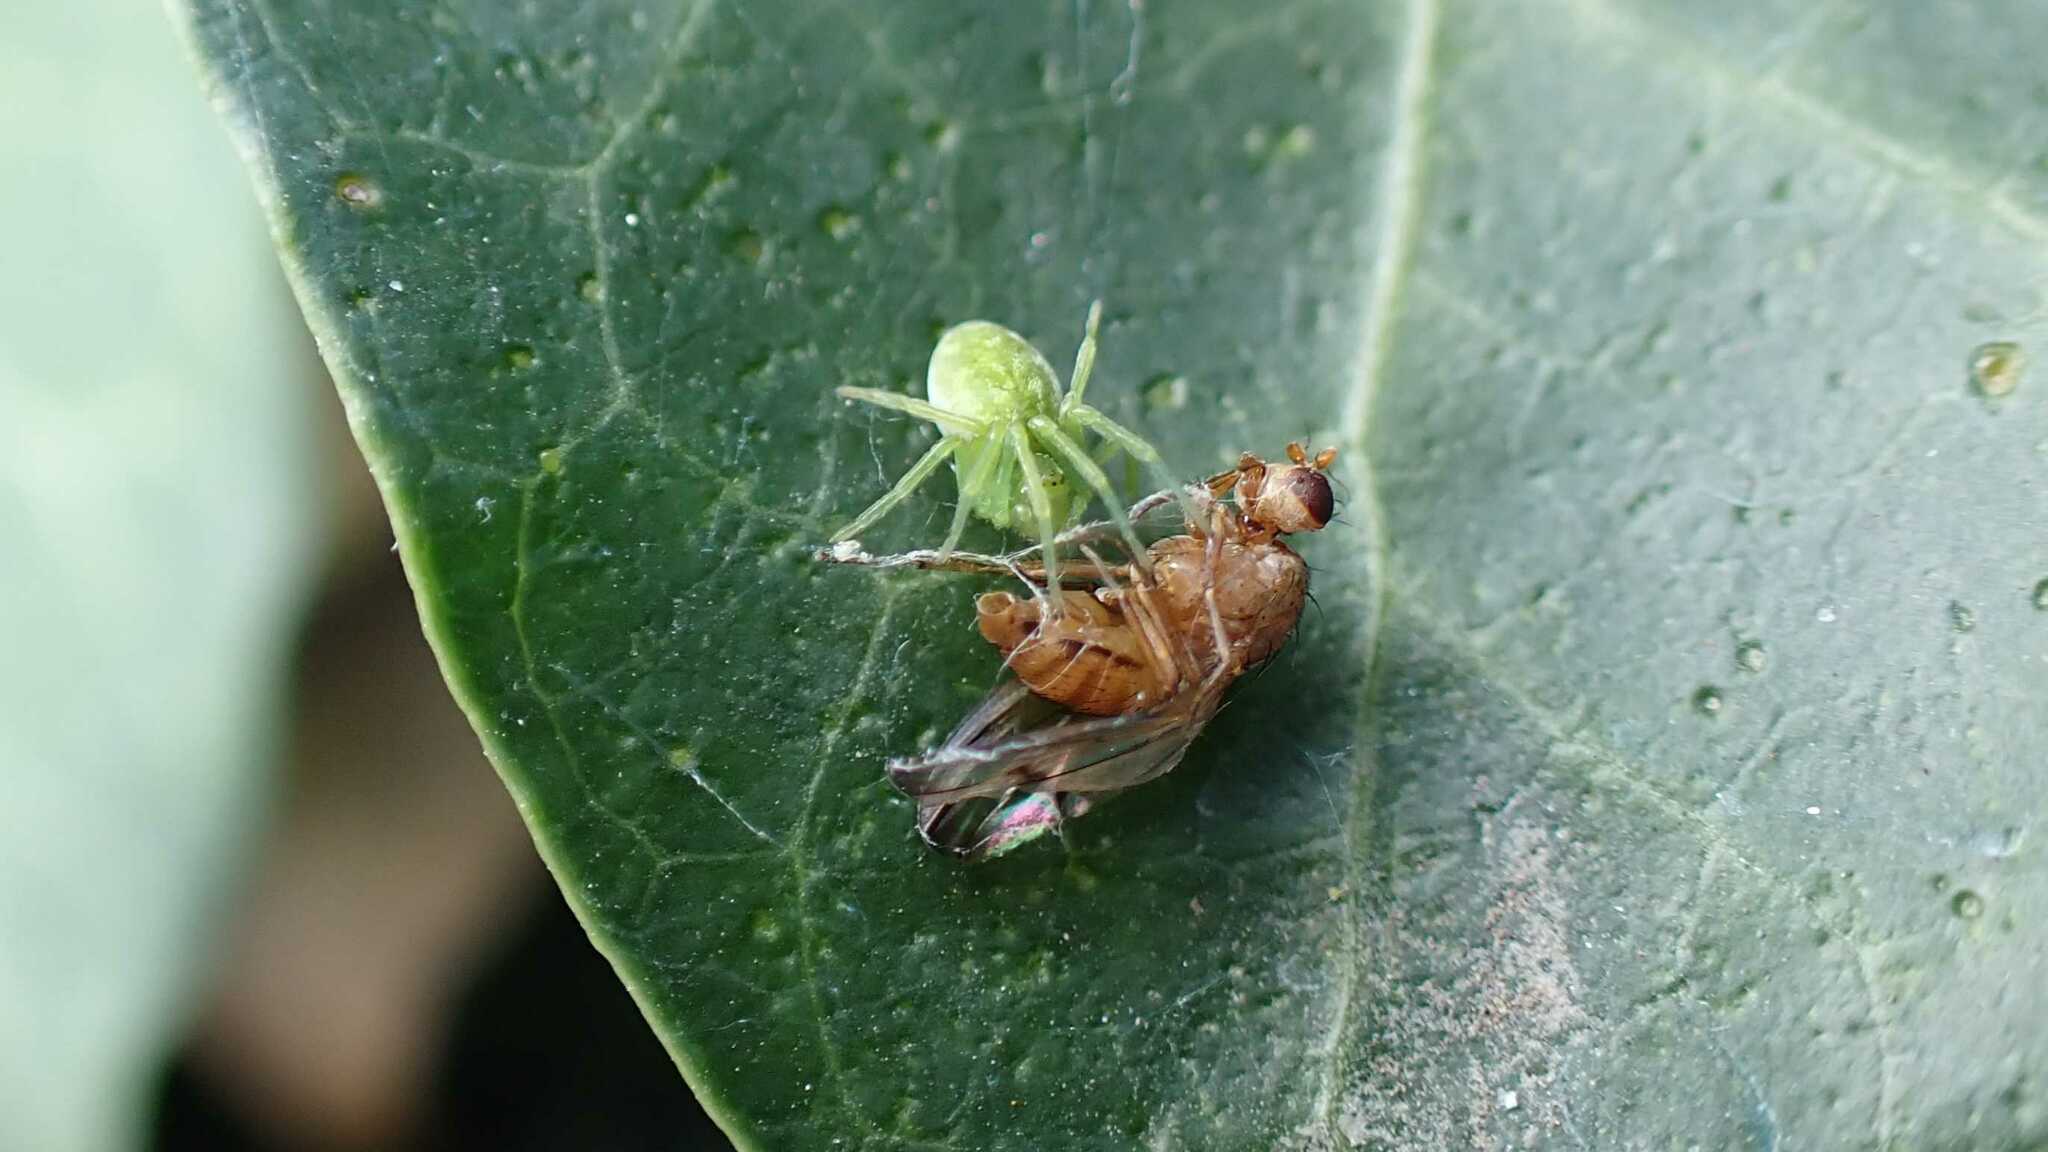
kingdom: Animalia
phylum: Arthropoda
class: Arachnida
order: Araneae
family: Dictynidae
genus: Nigma
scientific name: Nigma walckenaeri
